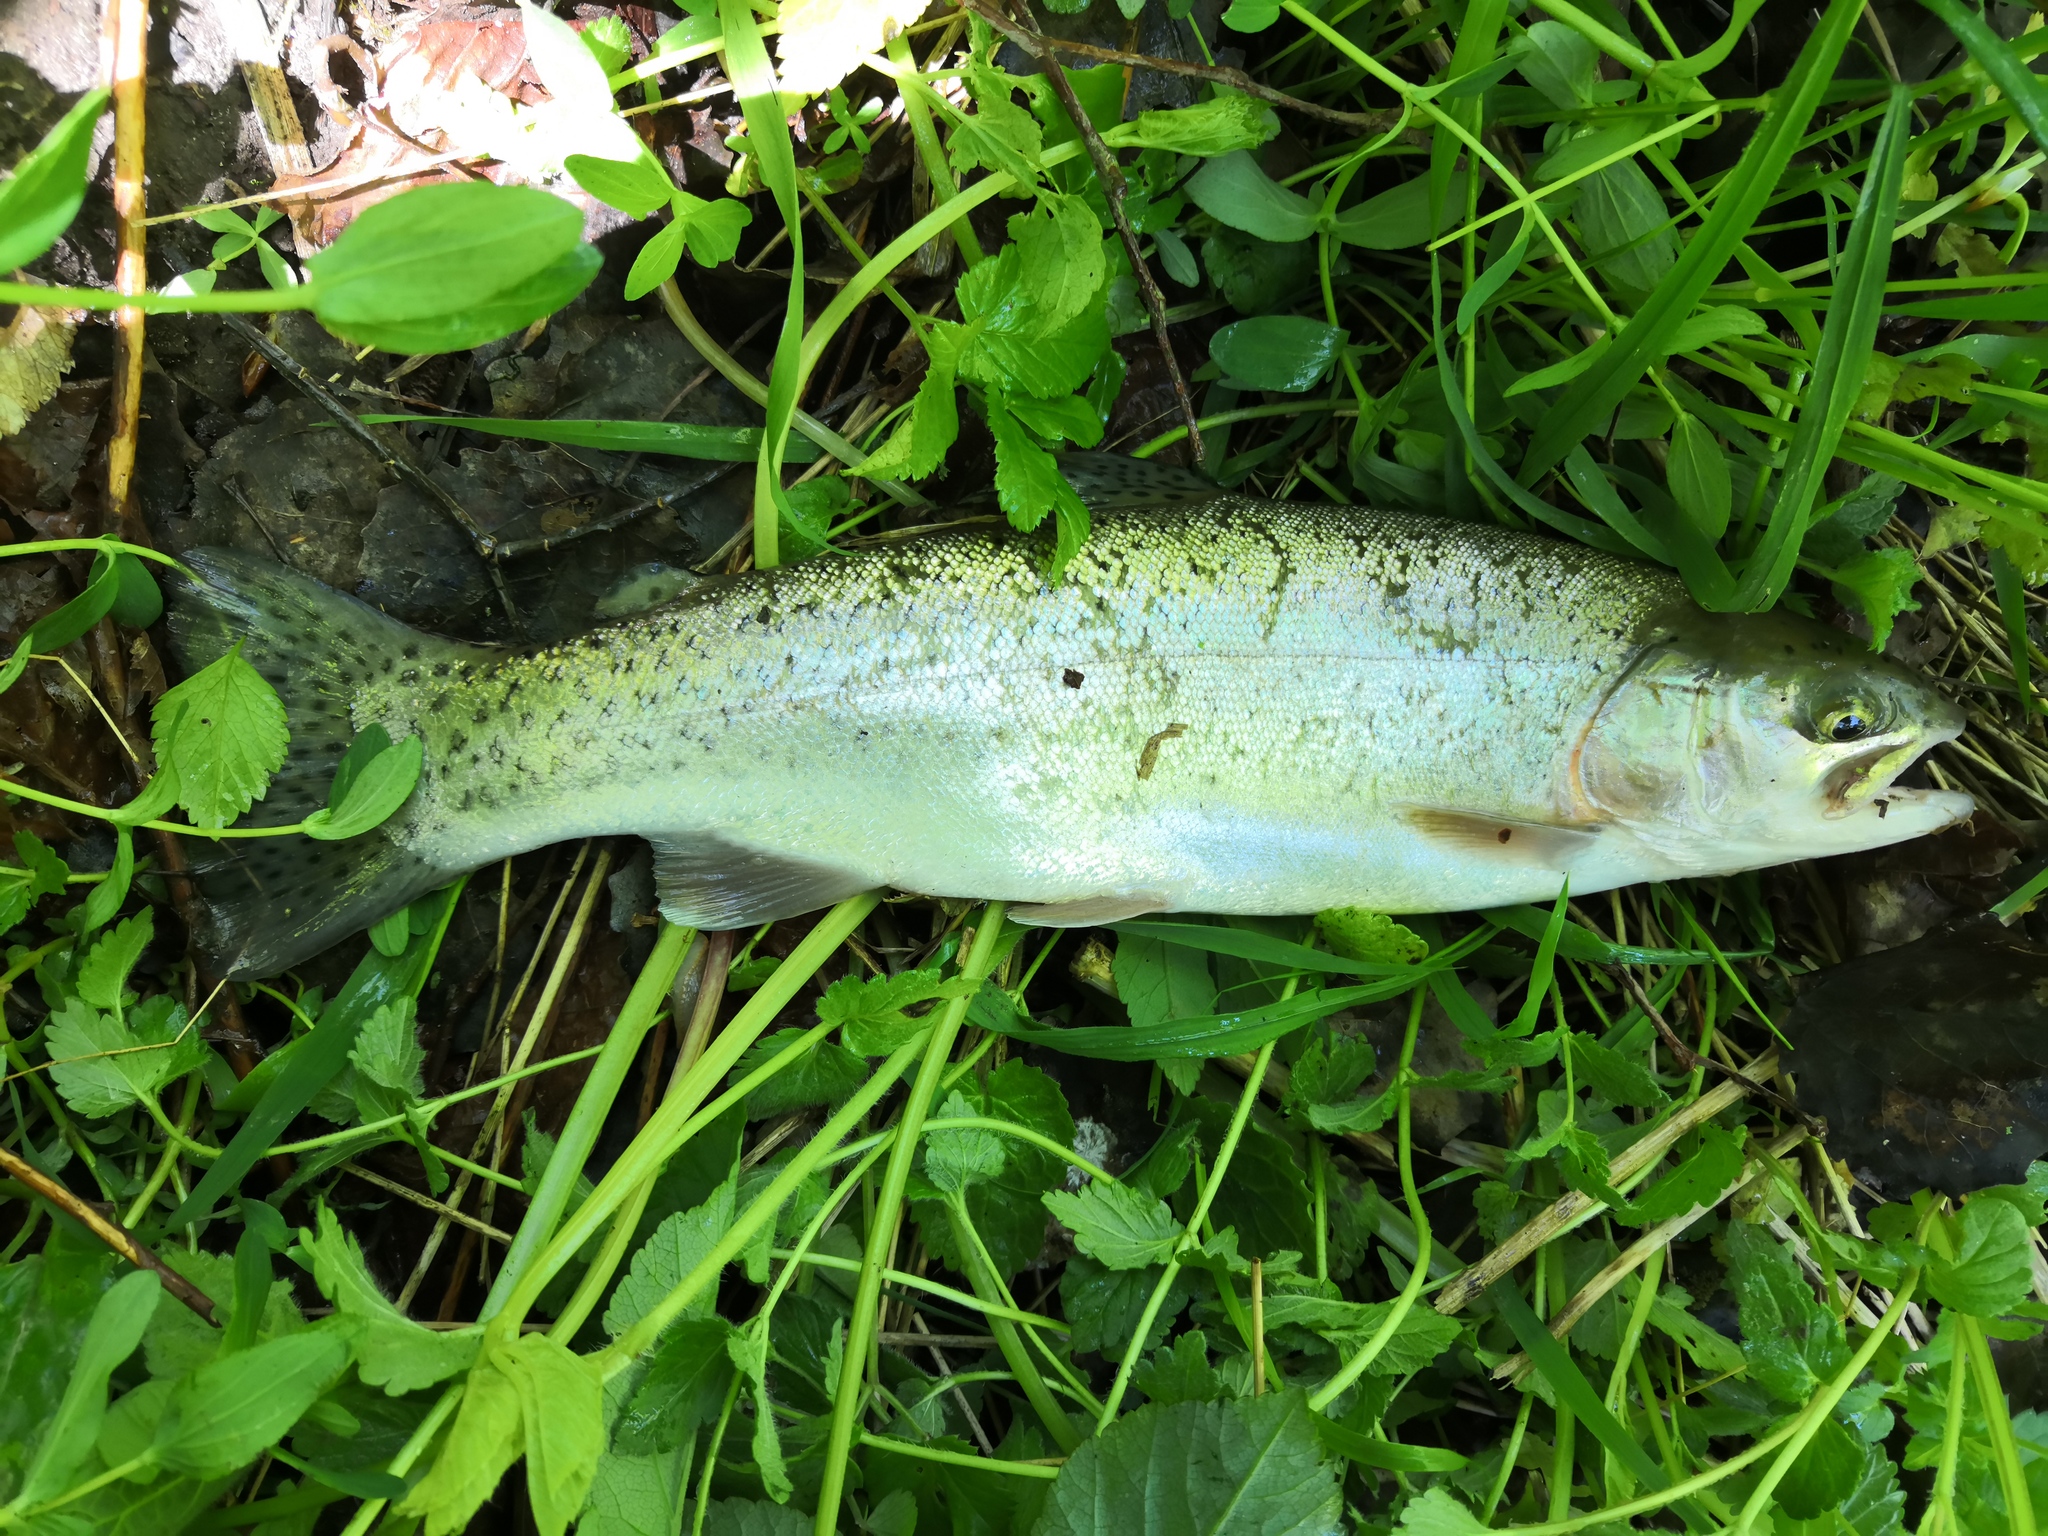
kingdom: Animalia
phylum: Chordata
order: Salmoniformes
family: Salmonidae
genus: Oncorhynchus
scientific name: Oncorhynchus mykiss
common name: Rainbow trout
